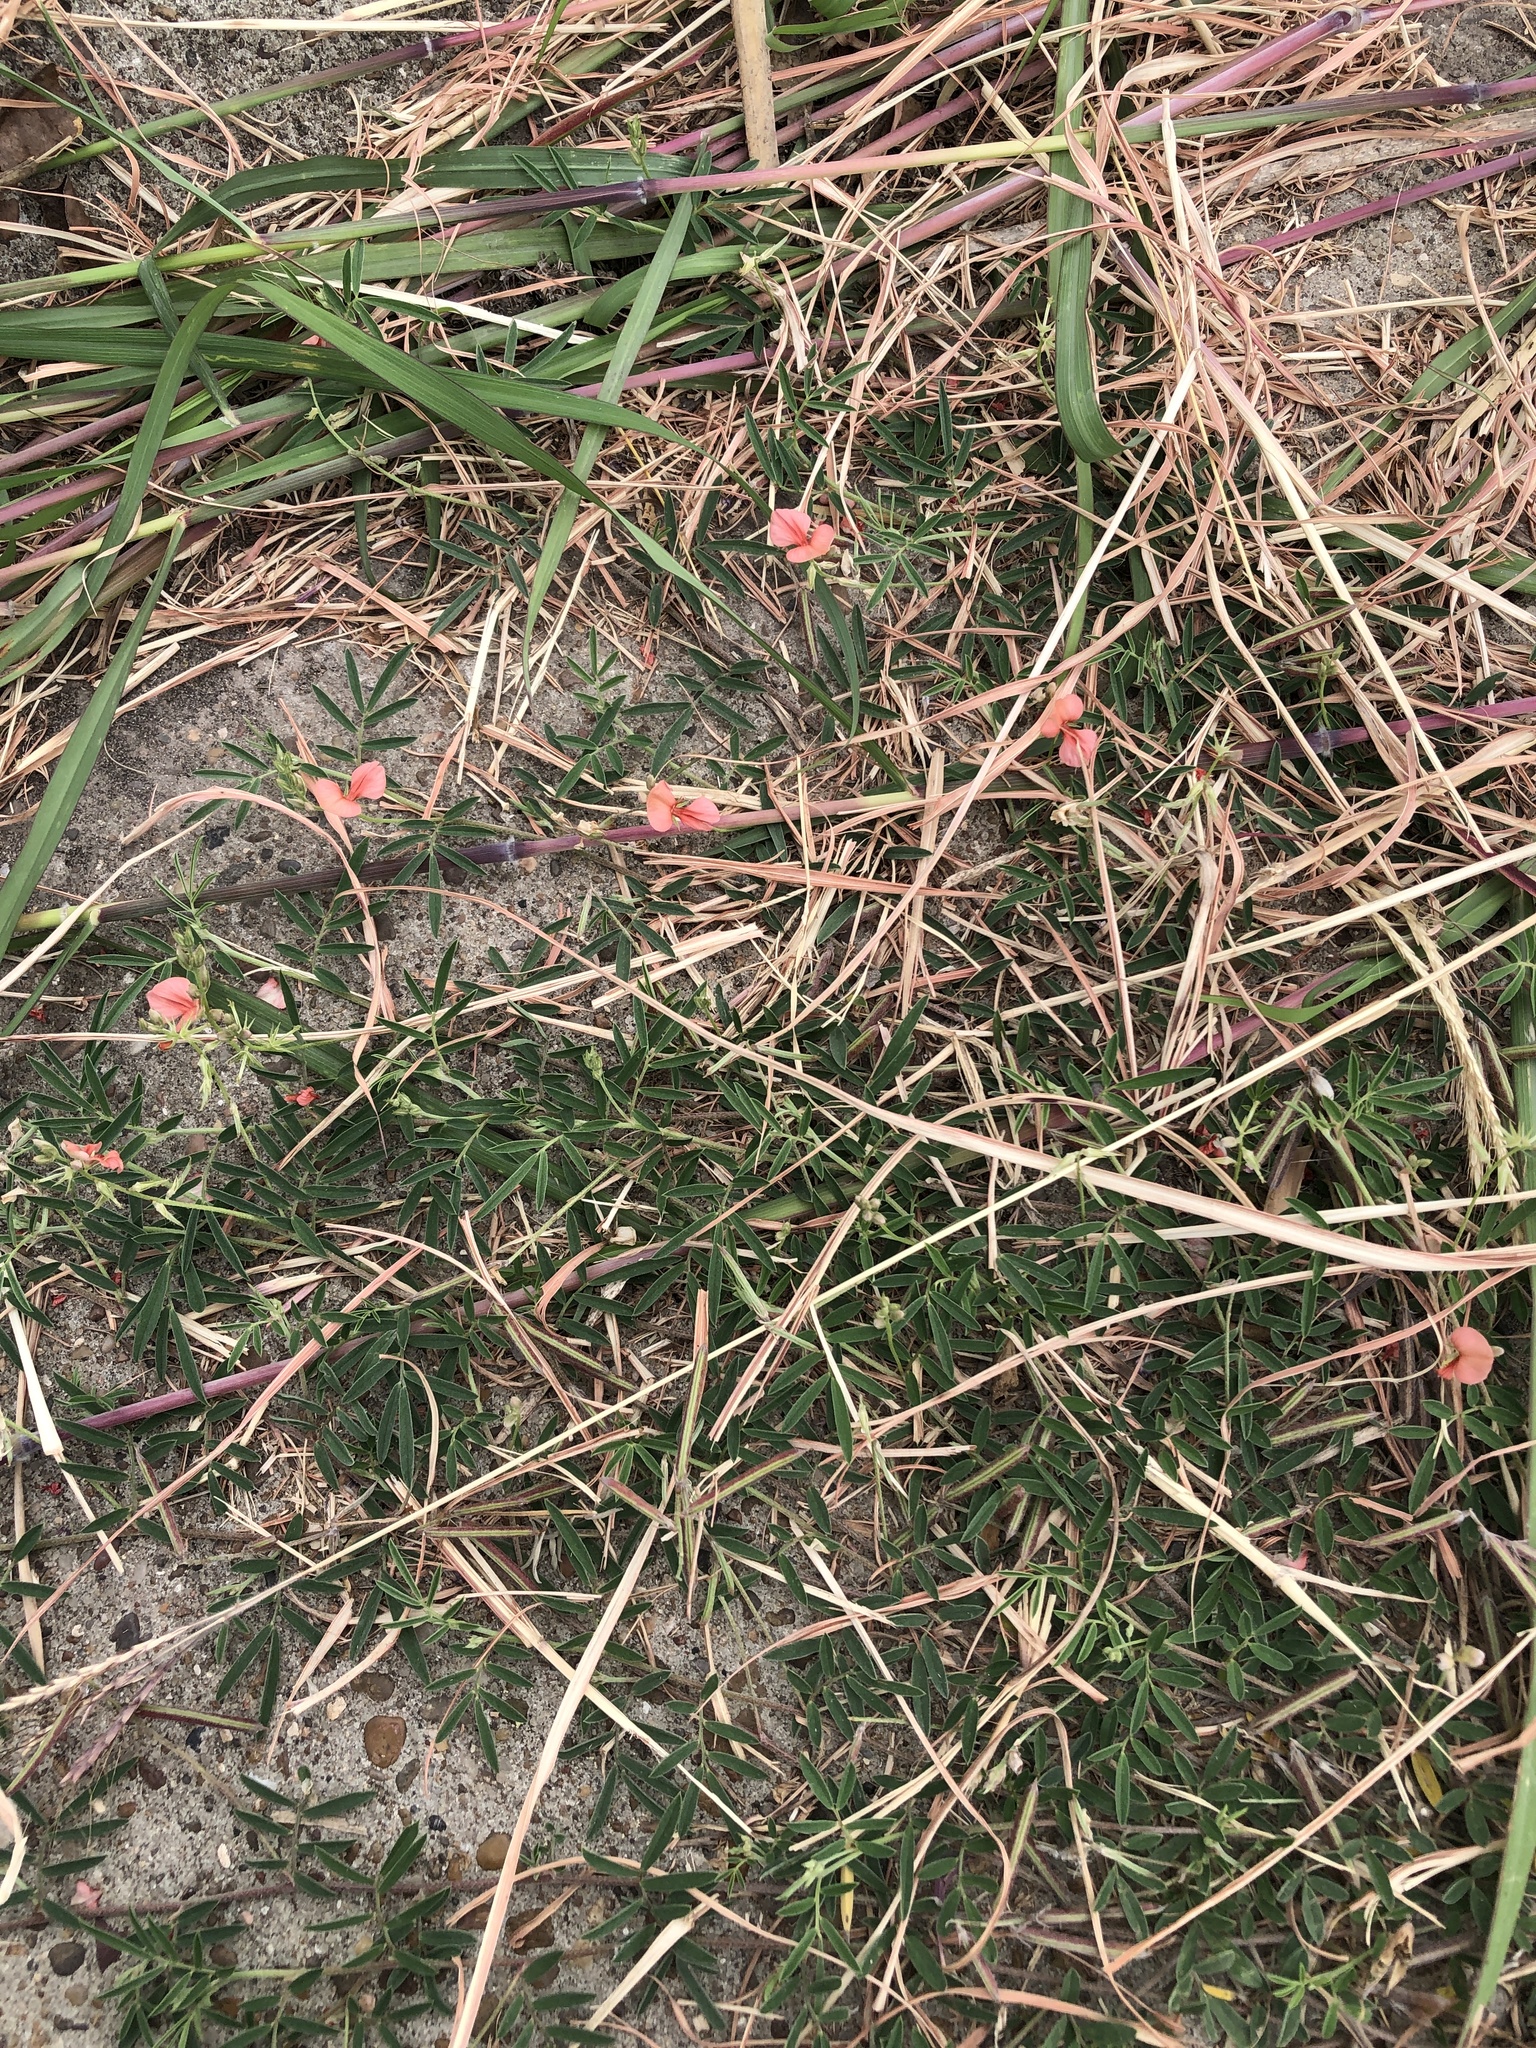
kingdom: Plantae
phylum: Tracheophyta
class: Magnoliopsida
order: Fabales
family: Fabaceae
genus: Indigofera
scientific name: Indigofera miniata
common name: Coast indigo
